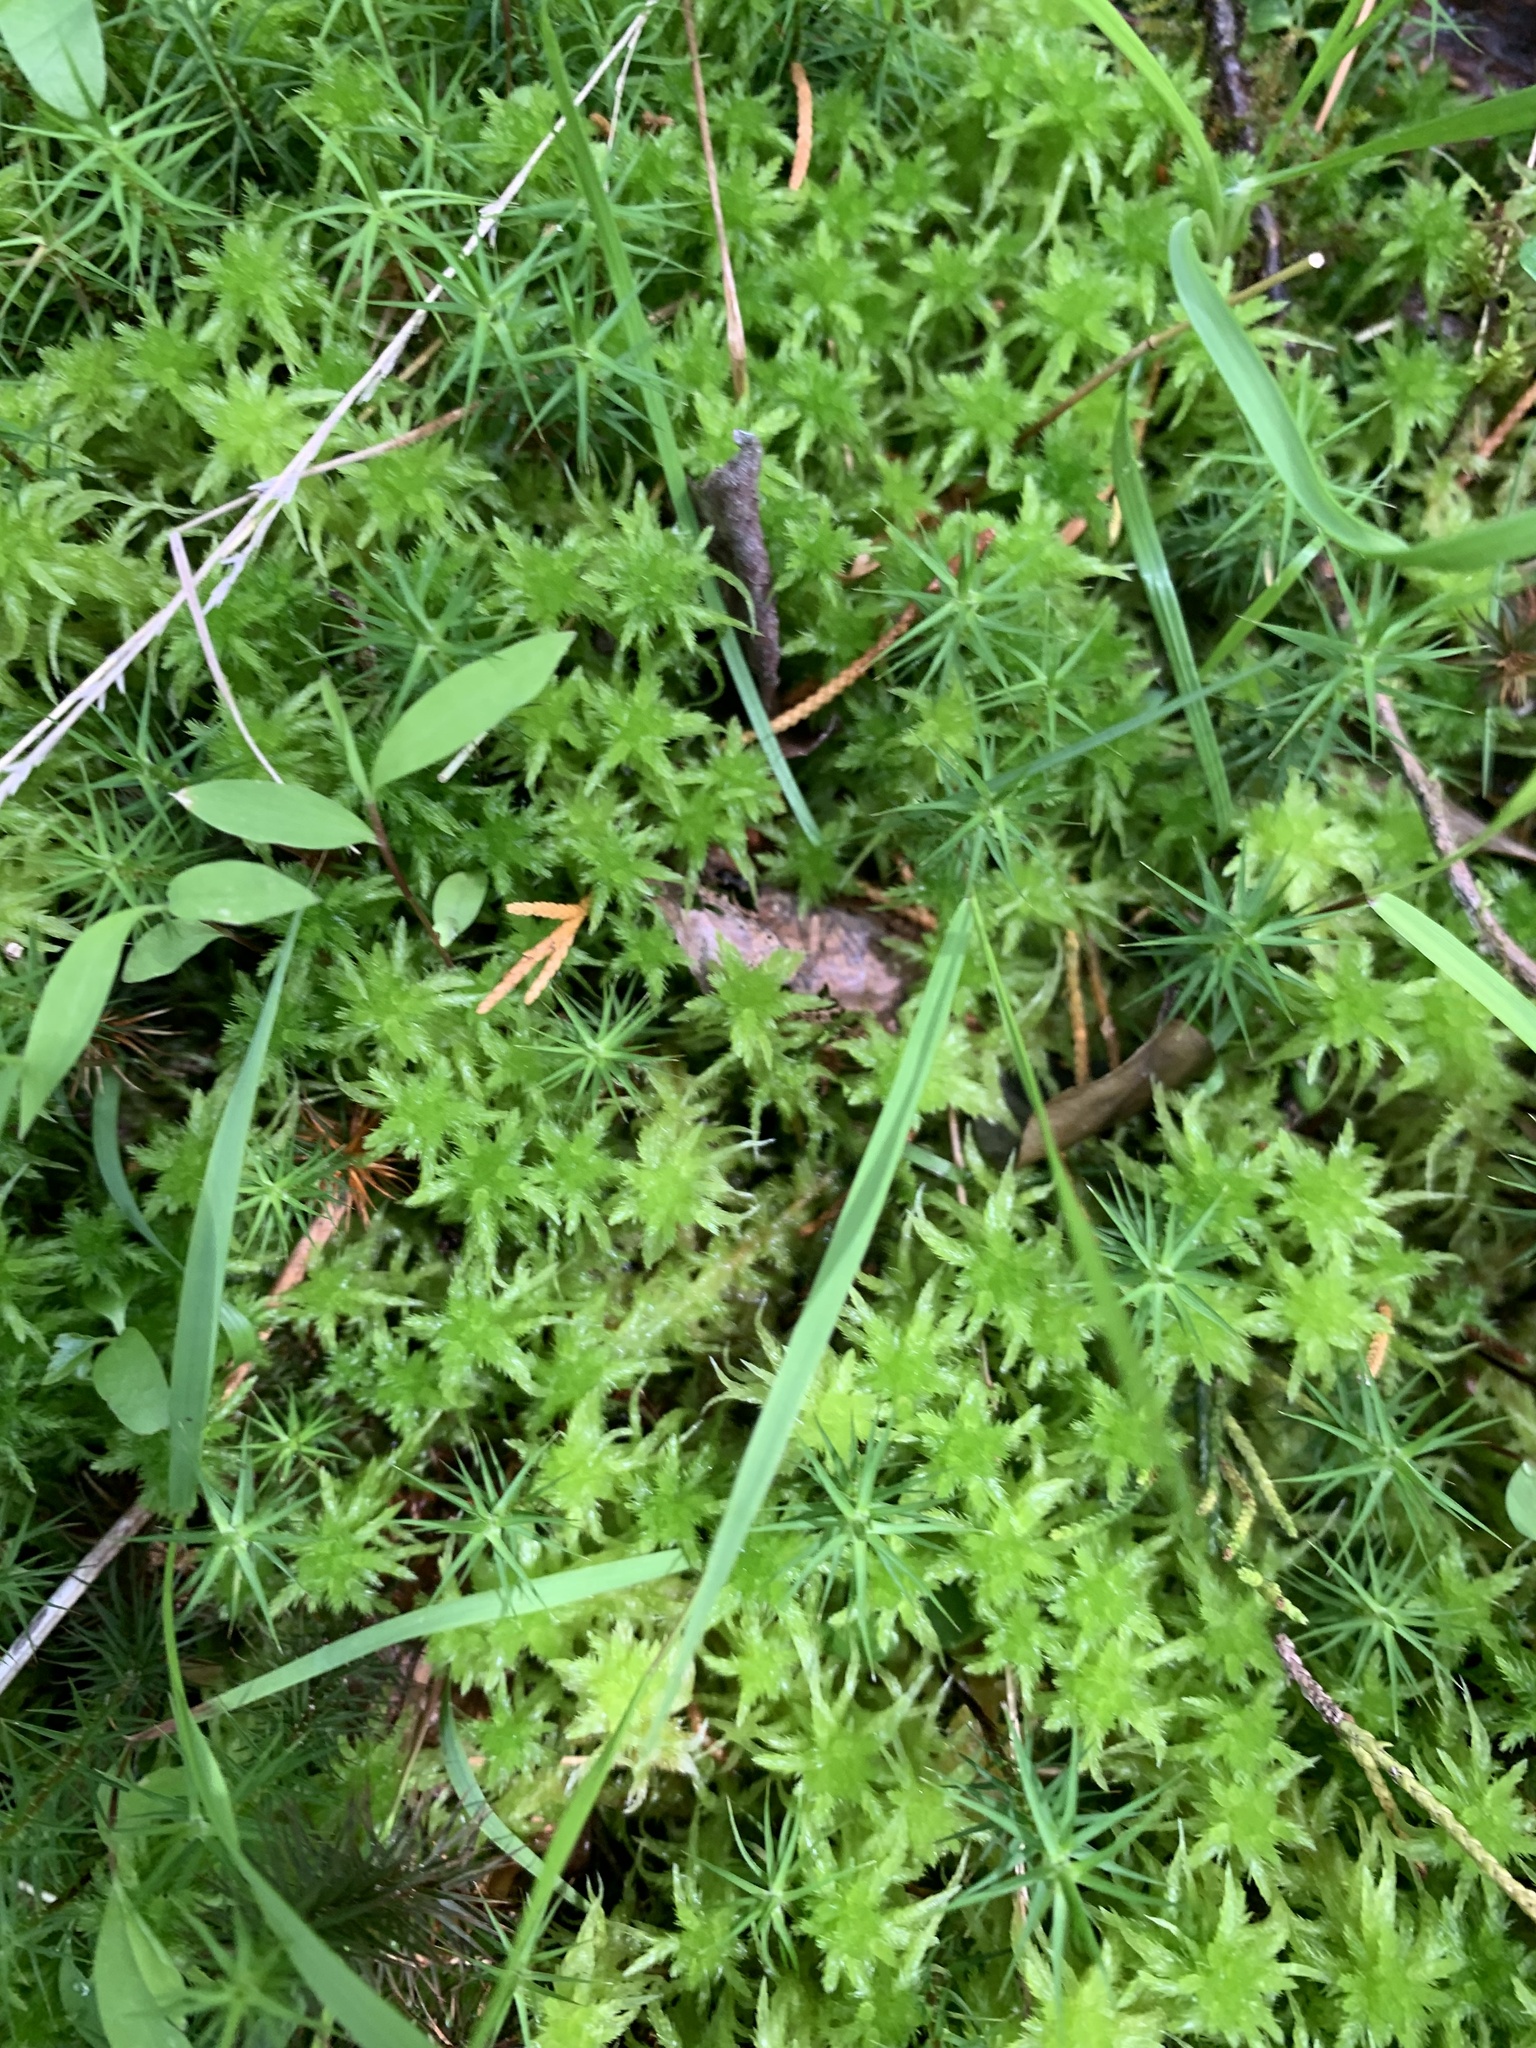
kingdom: Plantae
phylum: Bryophyta
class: Sphagnopsida
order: Sphagnales
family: Sphagnaceae
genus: Sphagnum
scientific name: Sphagnum missouricum
